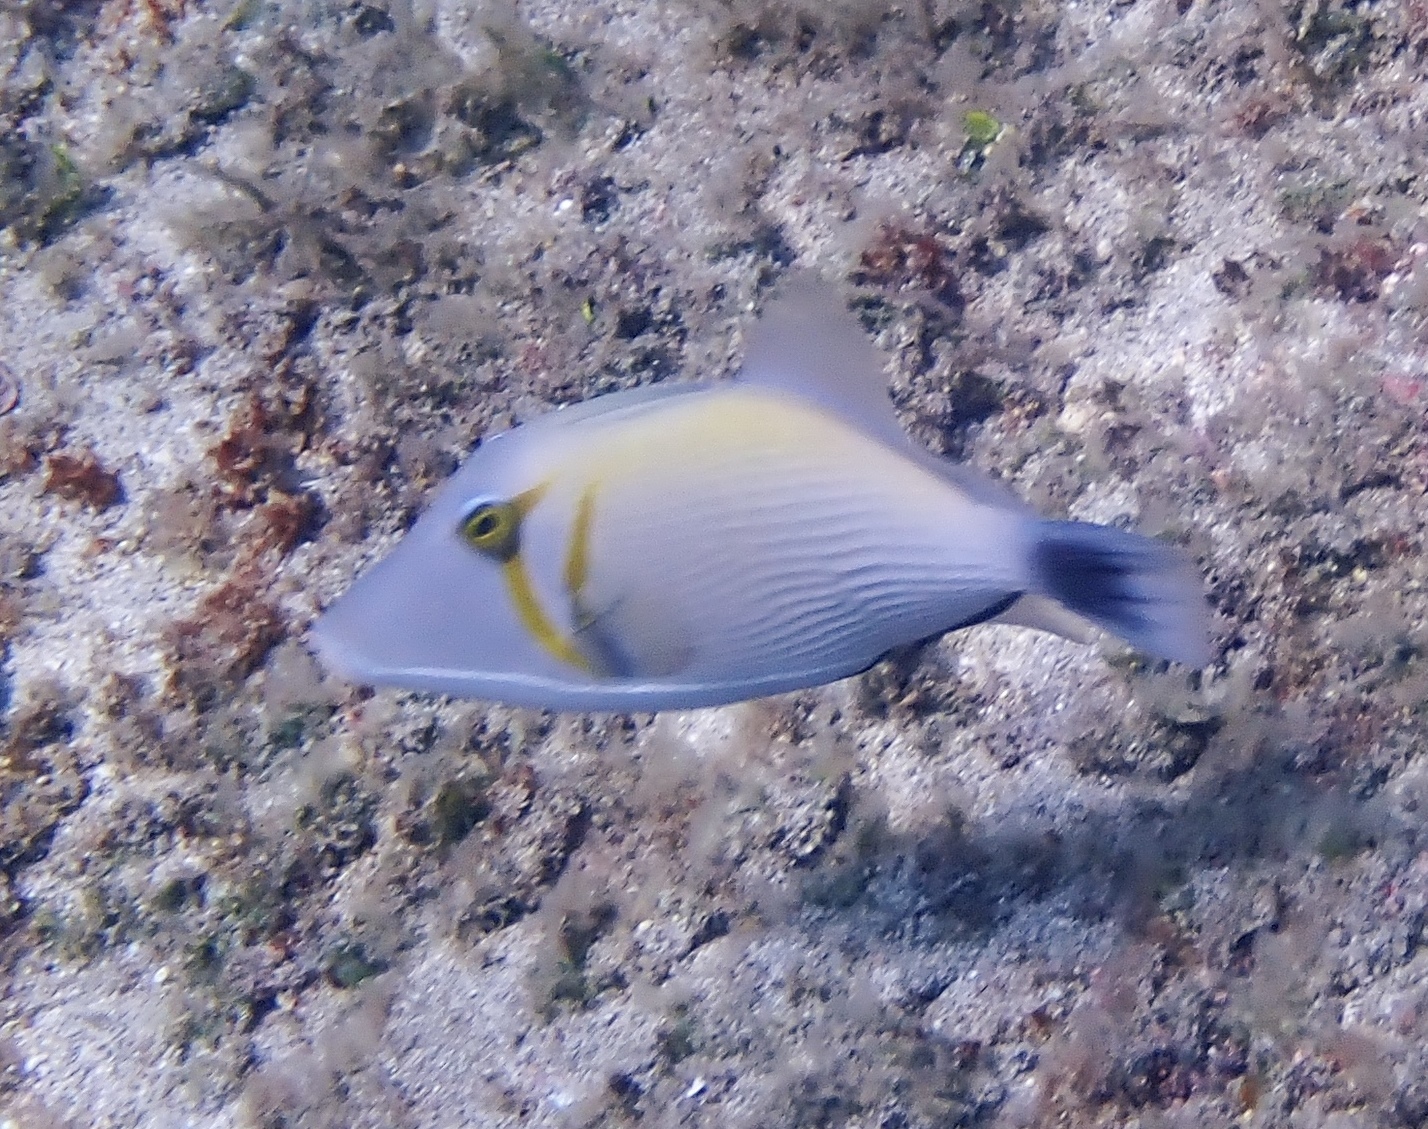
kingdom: Animalia
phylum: Chordata
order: Tetraodontiformes
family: Balistidae
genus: Sufflamen
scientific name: Sufflamen bursa
